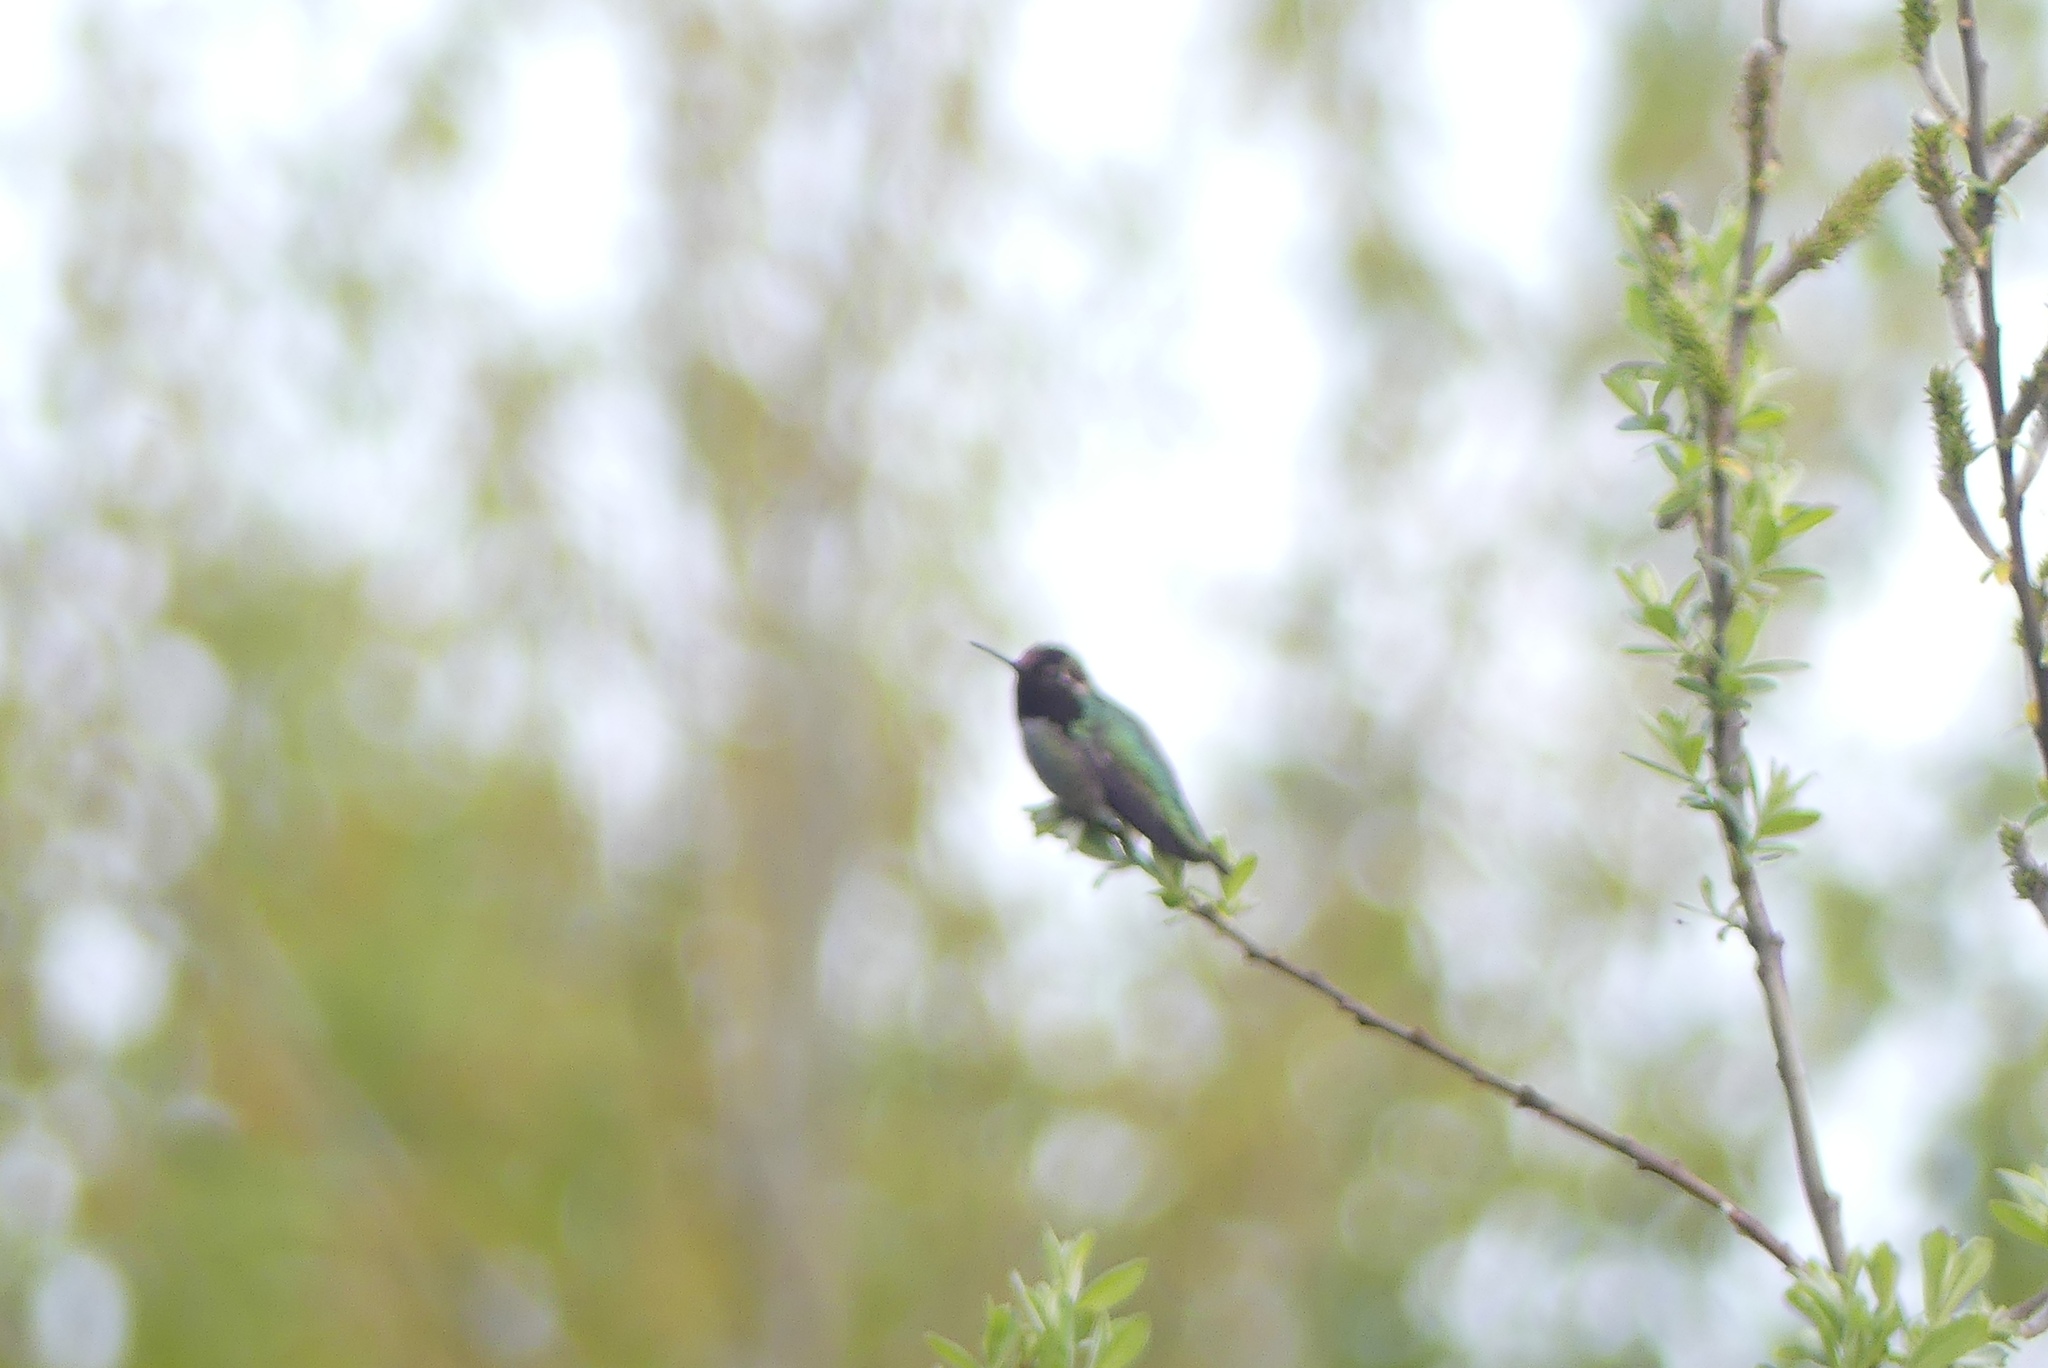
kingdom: Animalia
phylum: Chordata
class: Aves
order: Apodiformes
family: Trochilidae
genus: Calypte
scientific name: Calypte anna
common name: Anna's hummingbird
